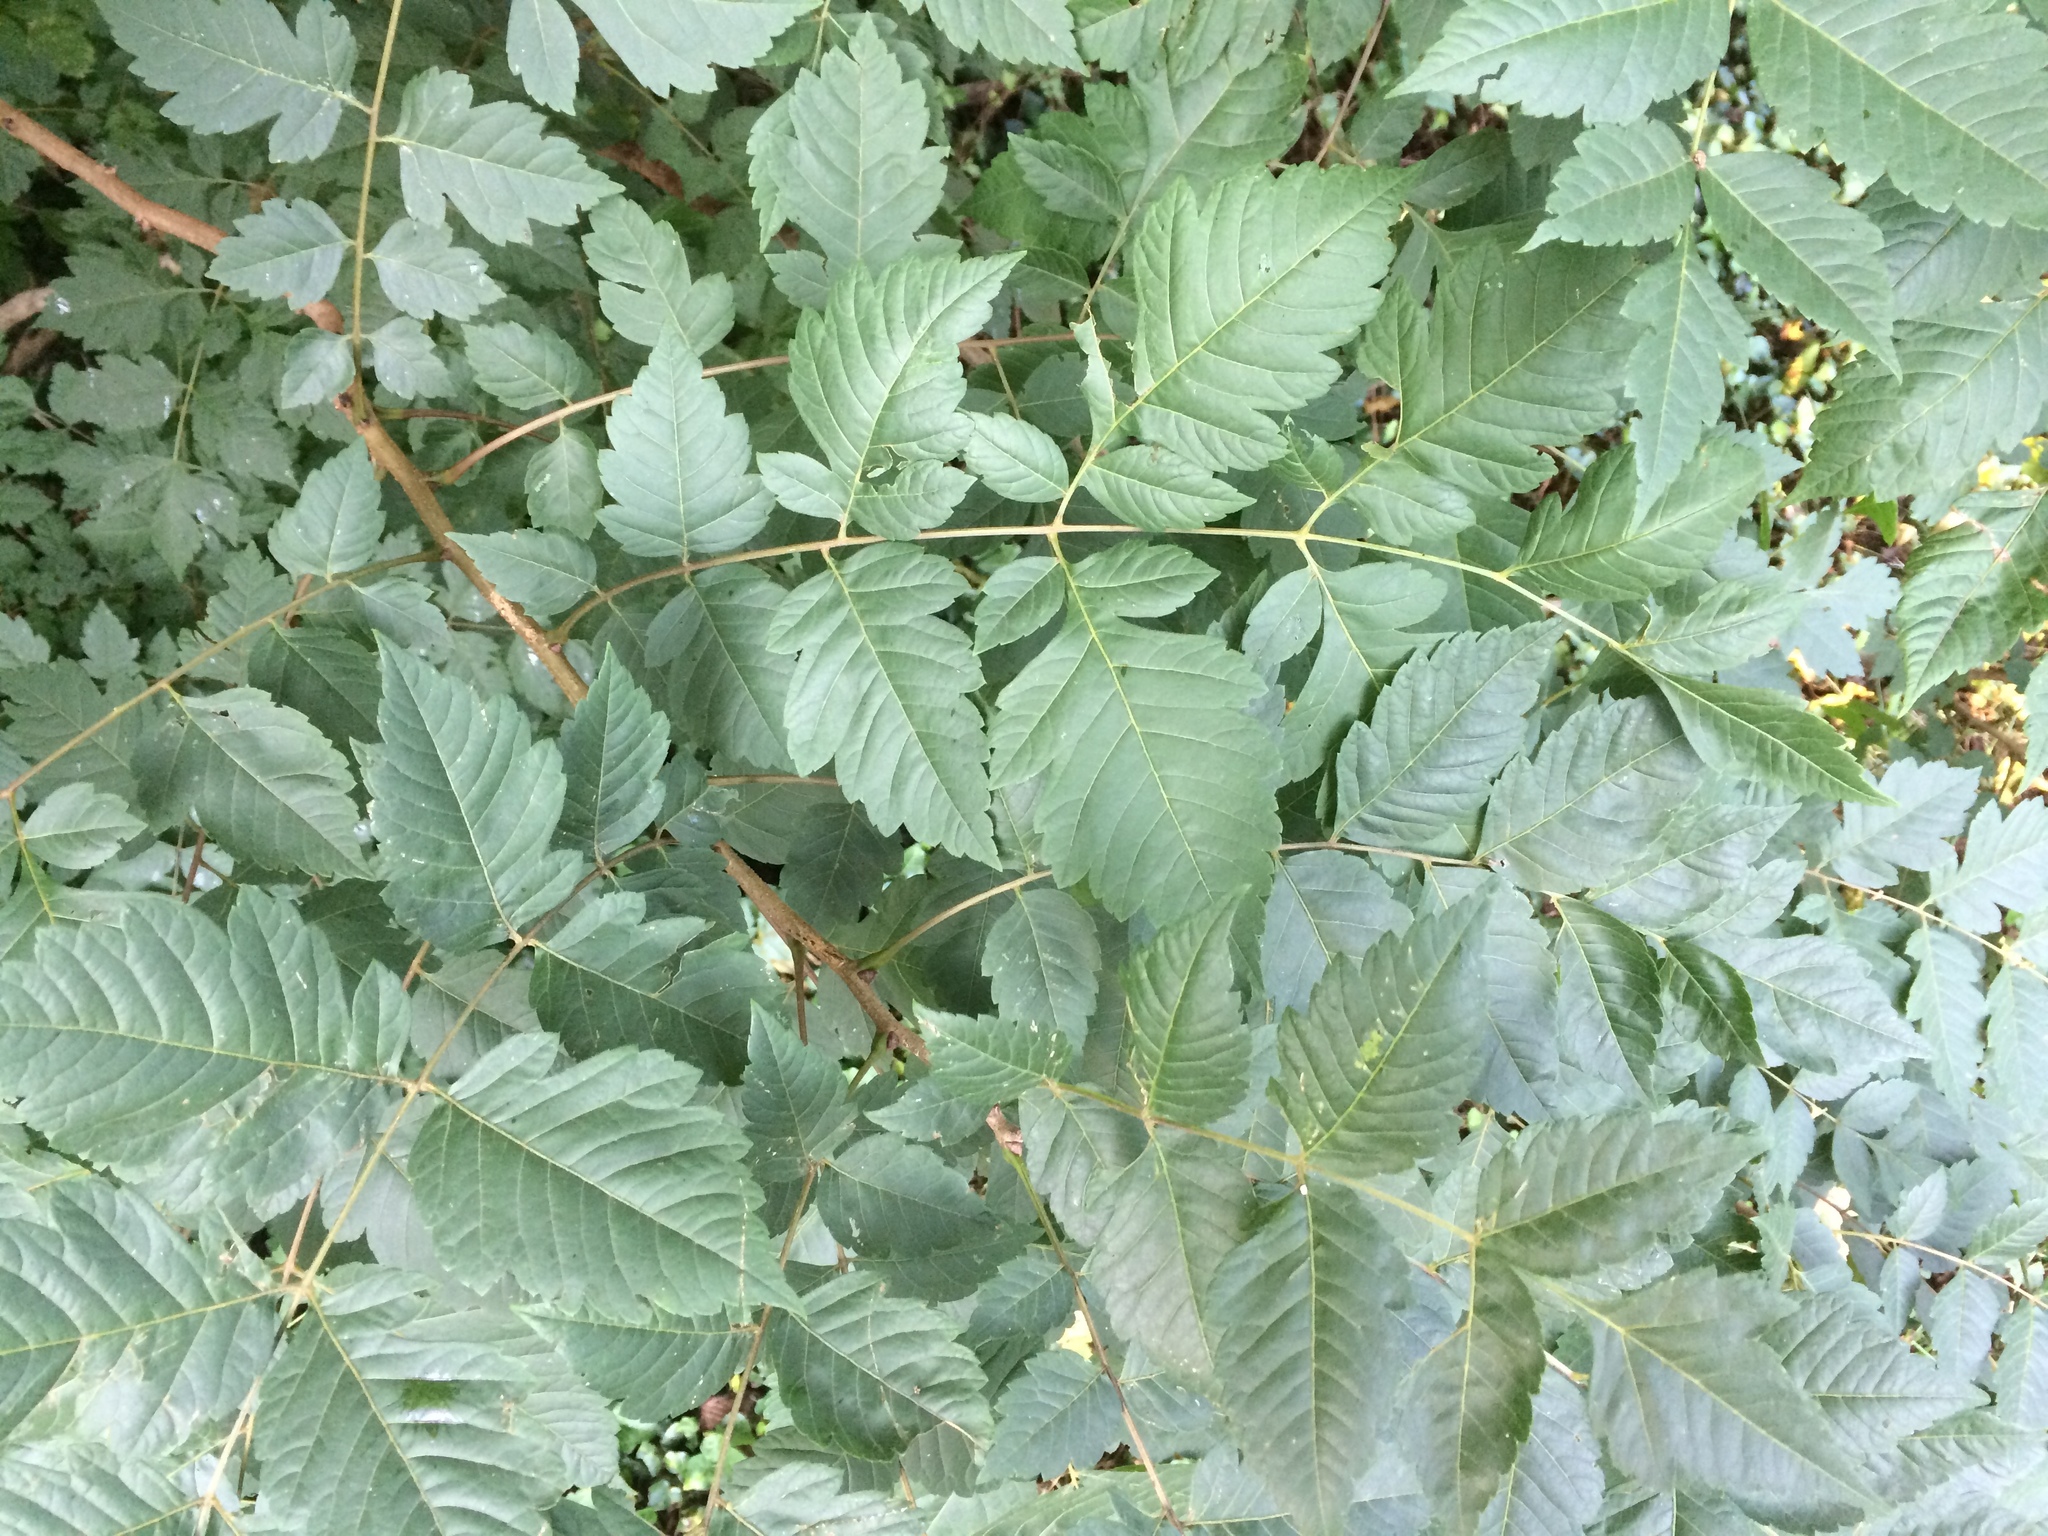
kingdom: Plantae
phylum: Tracheophyta
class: Magnoliopsida
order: Sapindales
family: Sapindaceae
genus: Koelreuteria
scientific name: Koelreuteria paniculata
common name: Pride-of-india
